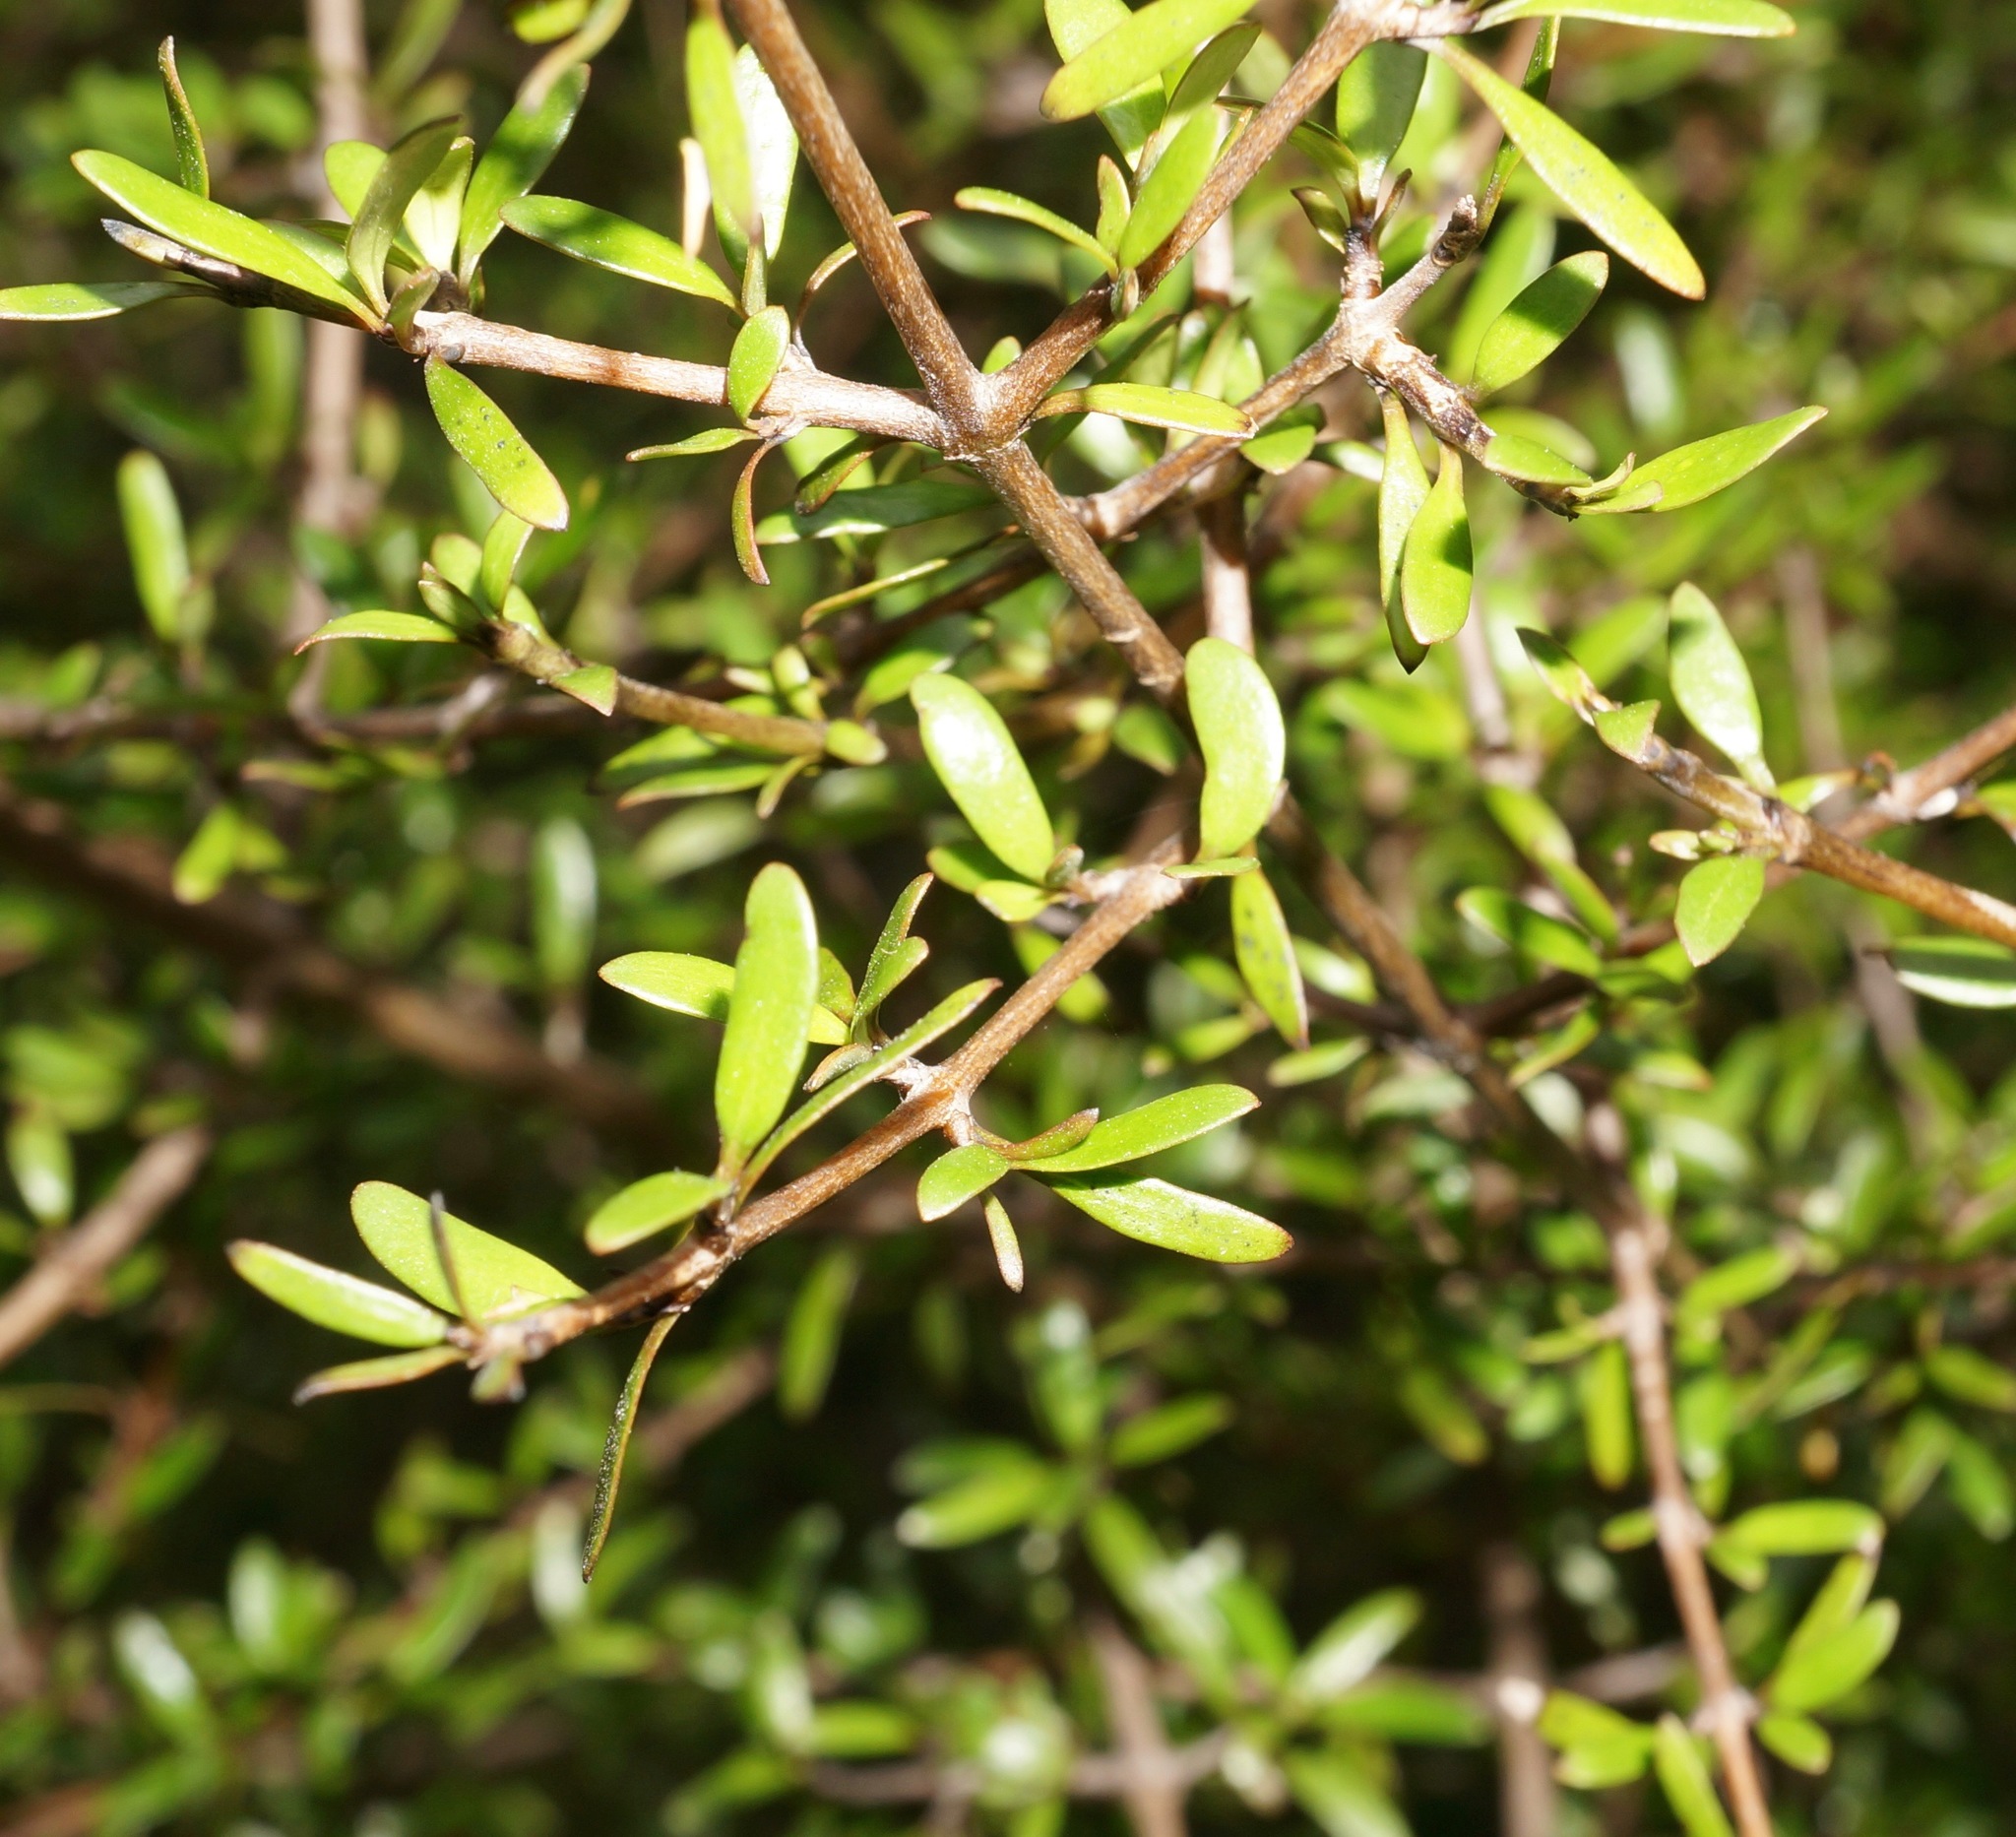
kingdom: Plantae
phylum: Tracheophyta
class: Magnoliopsida
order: Gentianales
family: Rubiaceae
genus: Coprosma
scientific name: Coprosma propinqua
